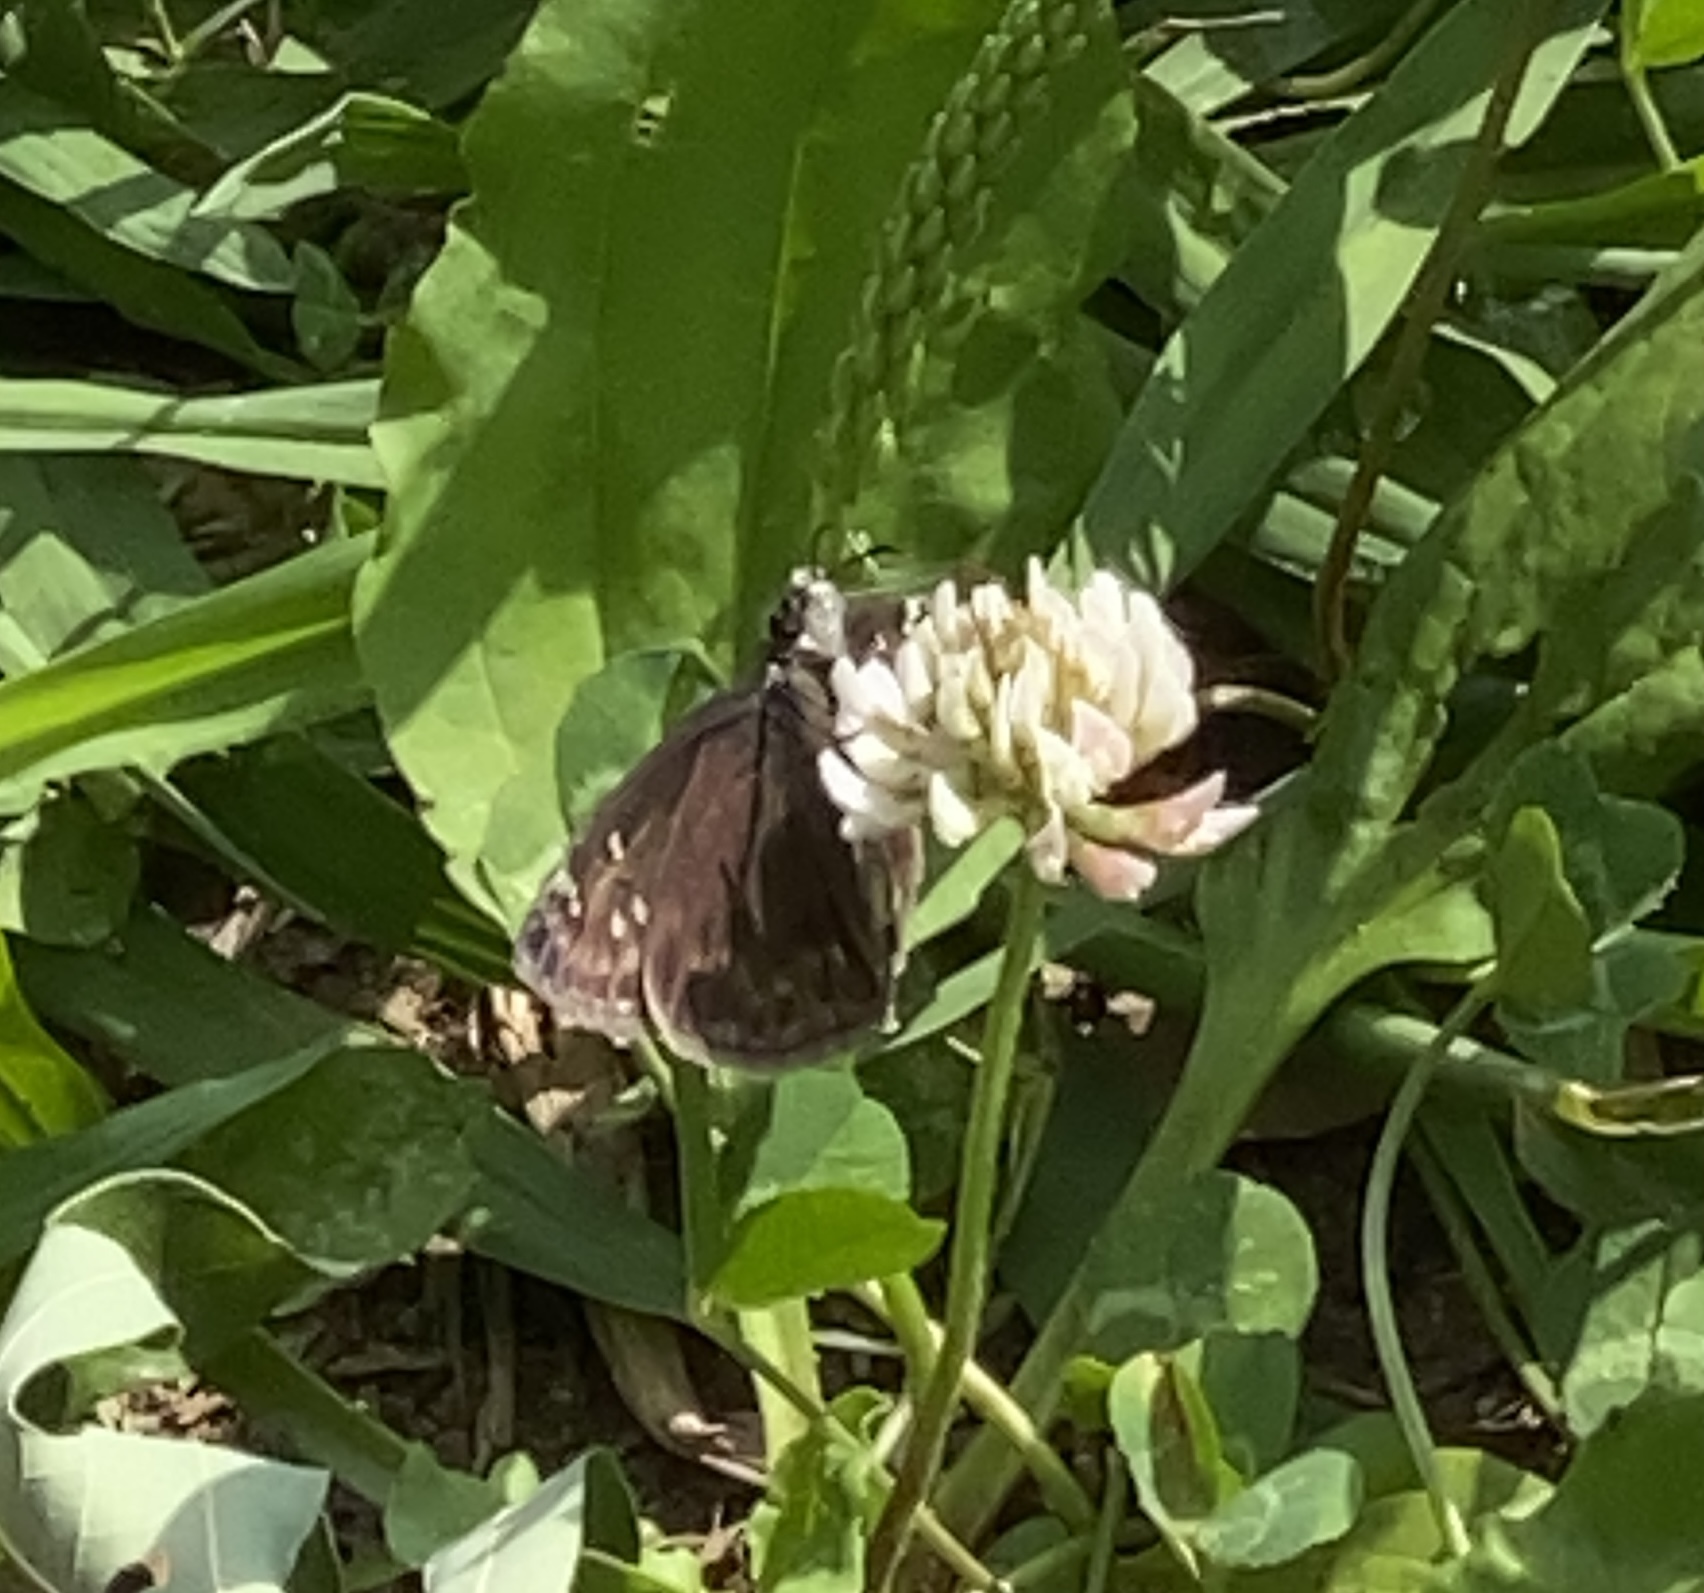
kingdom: Plantae
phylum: Tracheophyta
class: Magnoliopsida
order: Fabales
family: Fabaceae
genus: Trifolium
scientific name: Trifolium repens
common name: White clover
